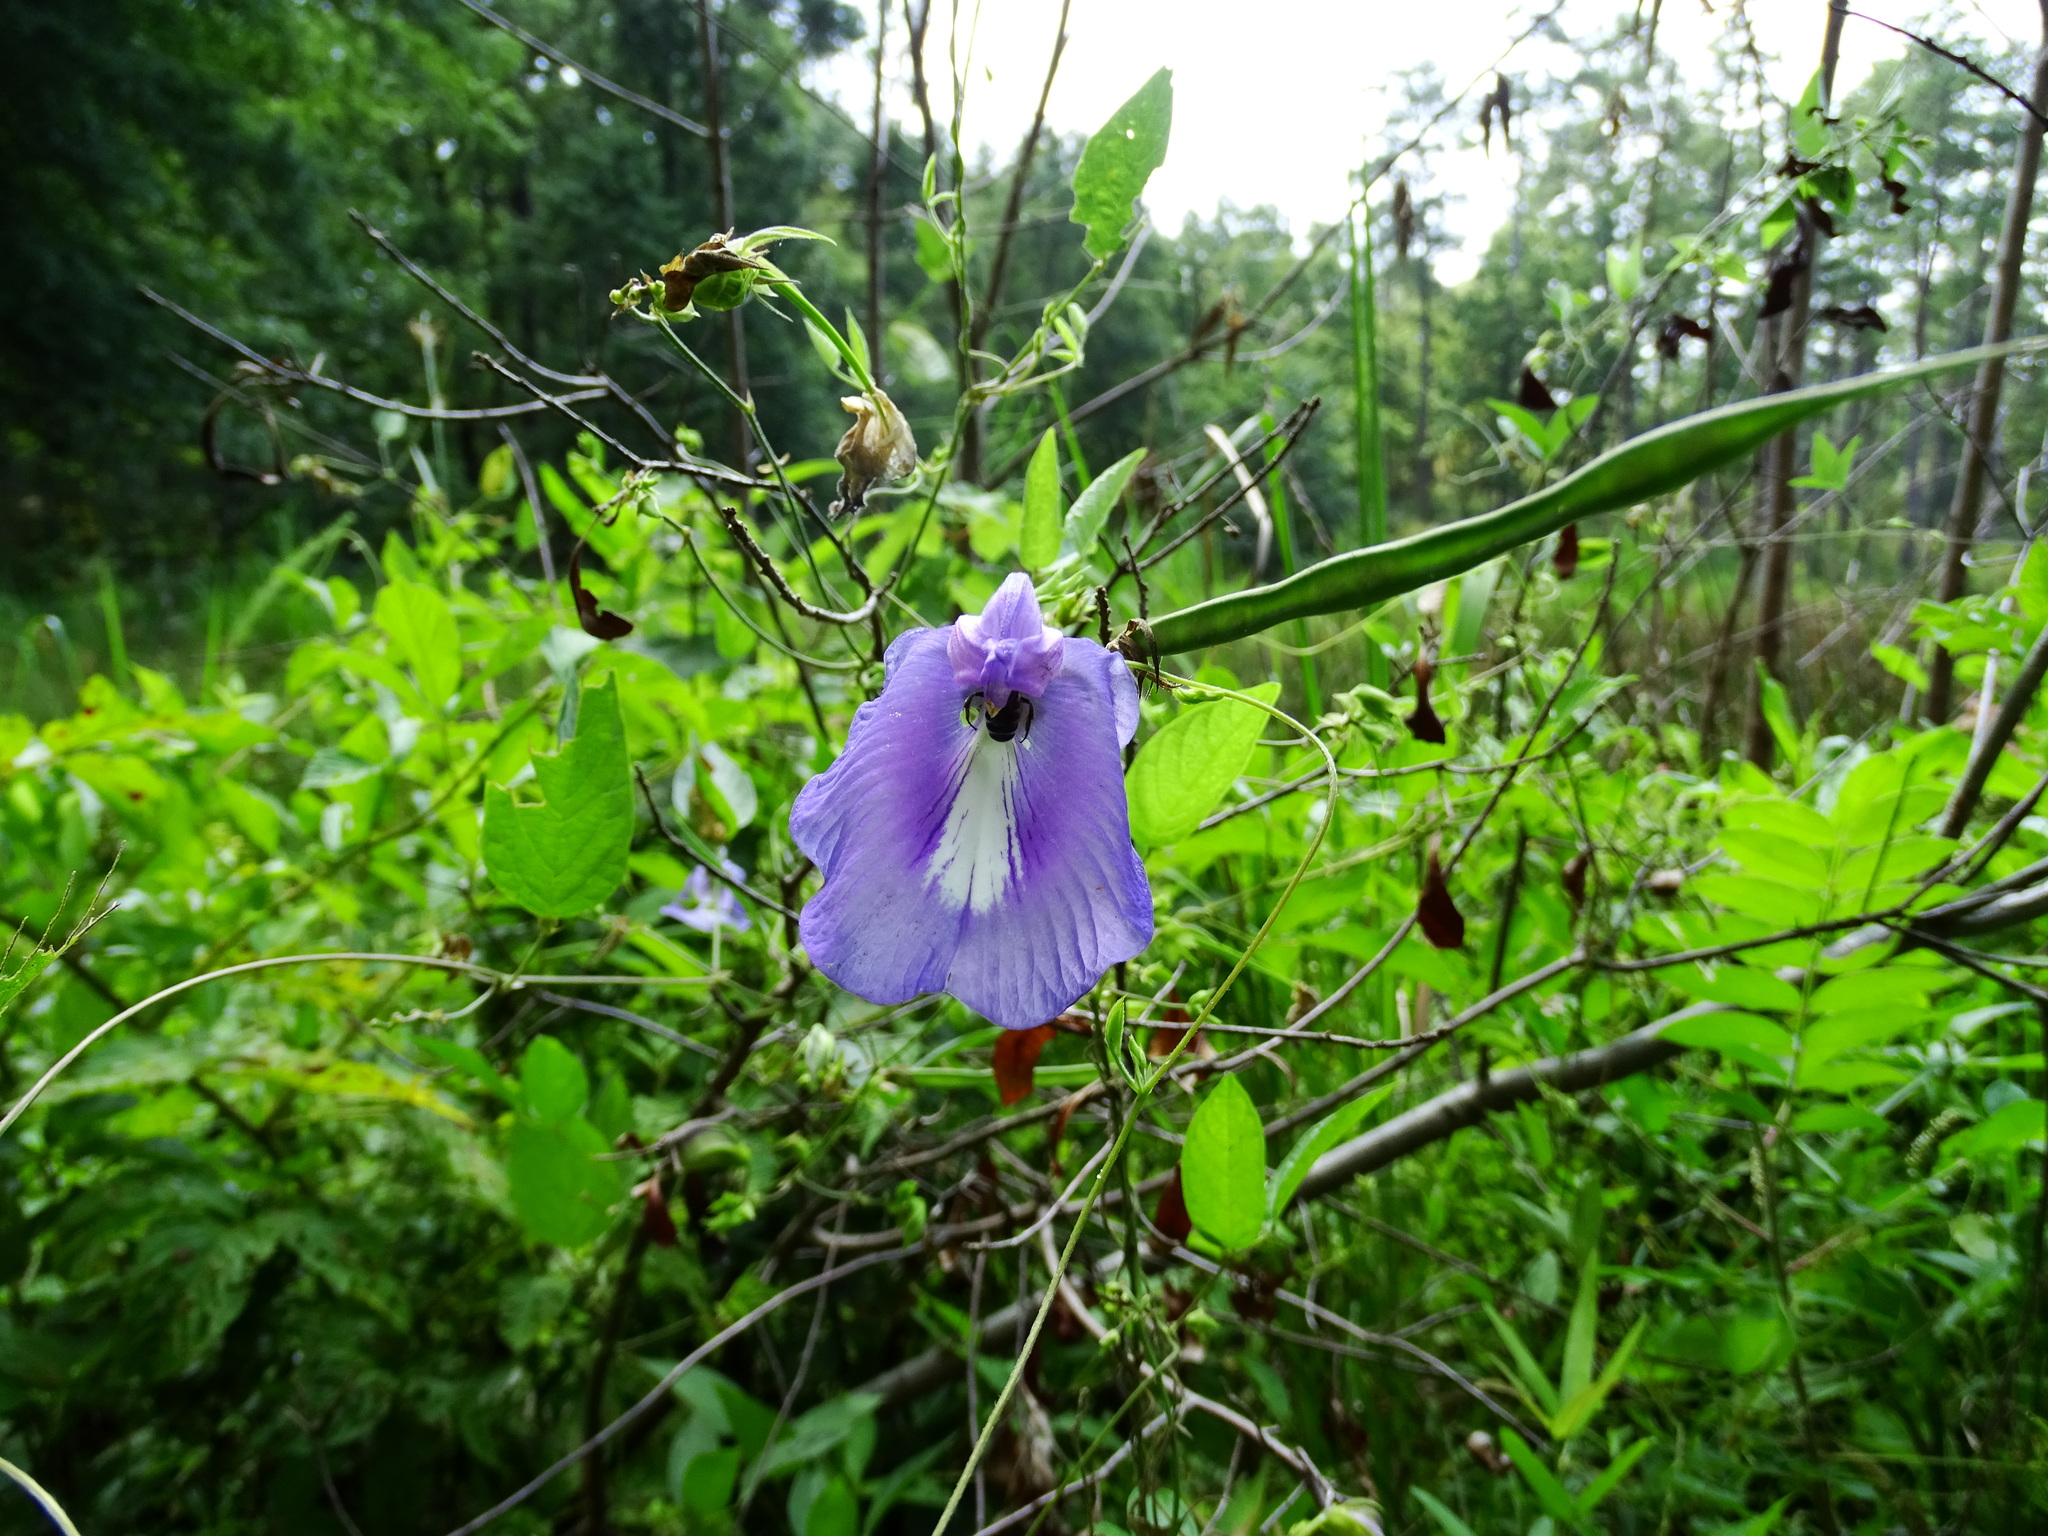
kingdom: Plantae
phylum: Tracheophyta
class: Magnoliopsida
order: Fabales
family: Fabaceae
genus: Centrosema
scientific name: Centrosema virginianum
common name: Butterfly-pea
